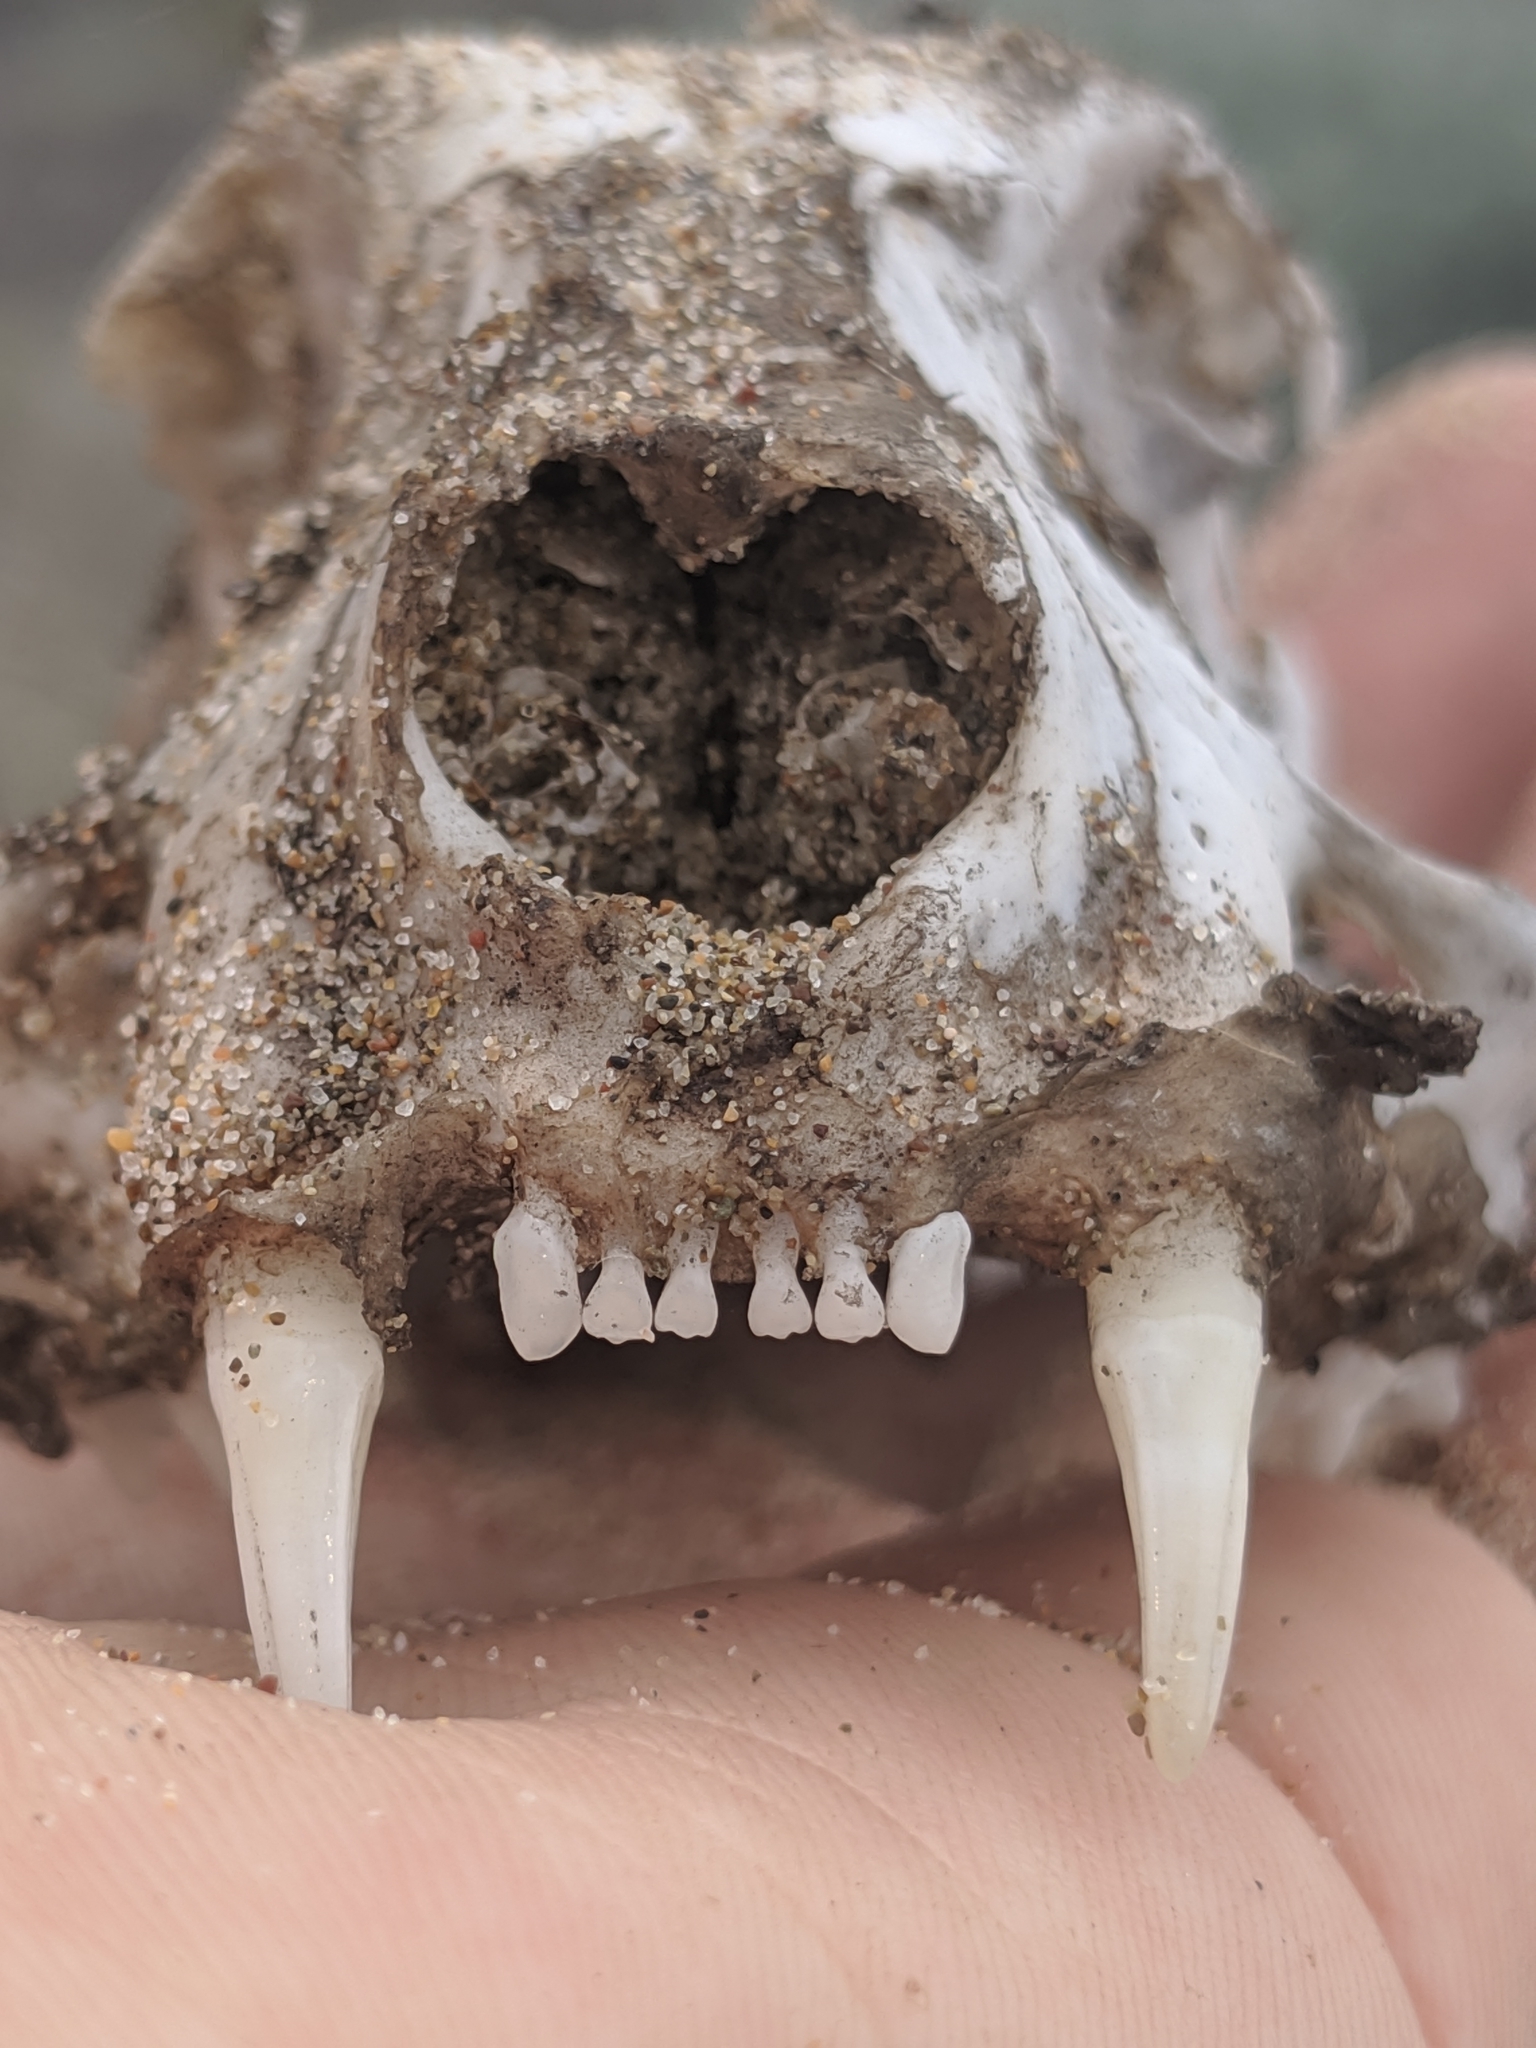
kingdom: Animalia
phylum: Chordata
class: Mammalia
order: Carnivora
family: Felidae
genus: Felis
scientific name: Felis catus
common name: Domestic cat
